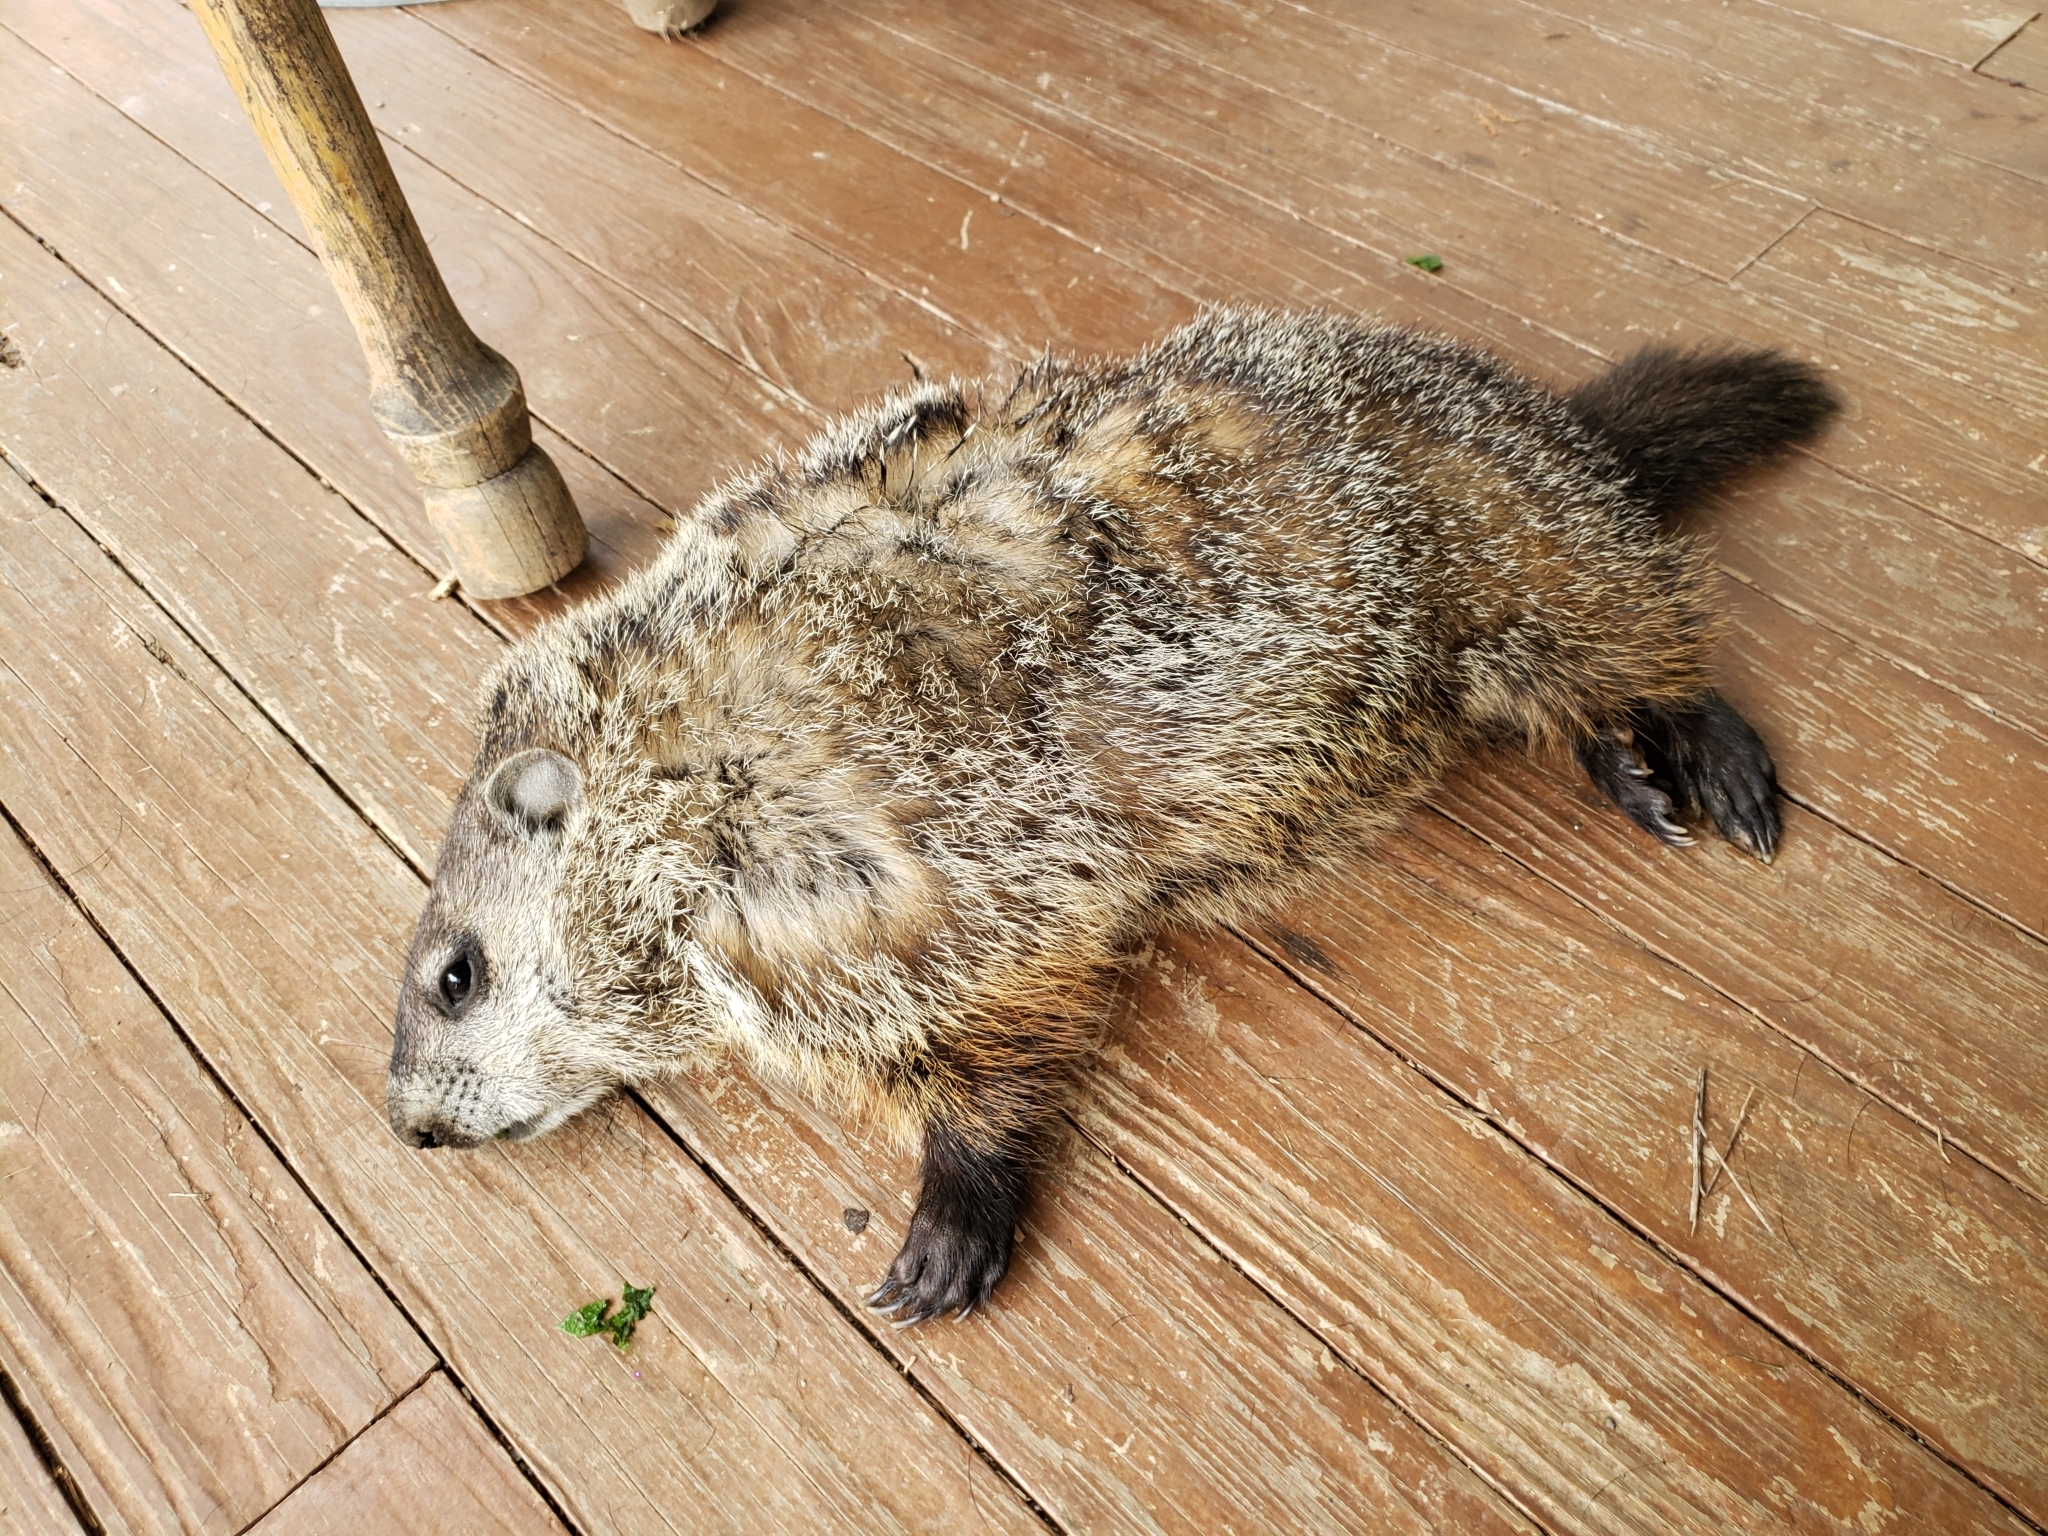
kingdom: Animalia
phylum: Chordata
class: Mammalia
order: Rodentia
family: Sciuridae
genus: Marmota
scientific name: Marmota monax
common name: Groundhog
